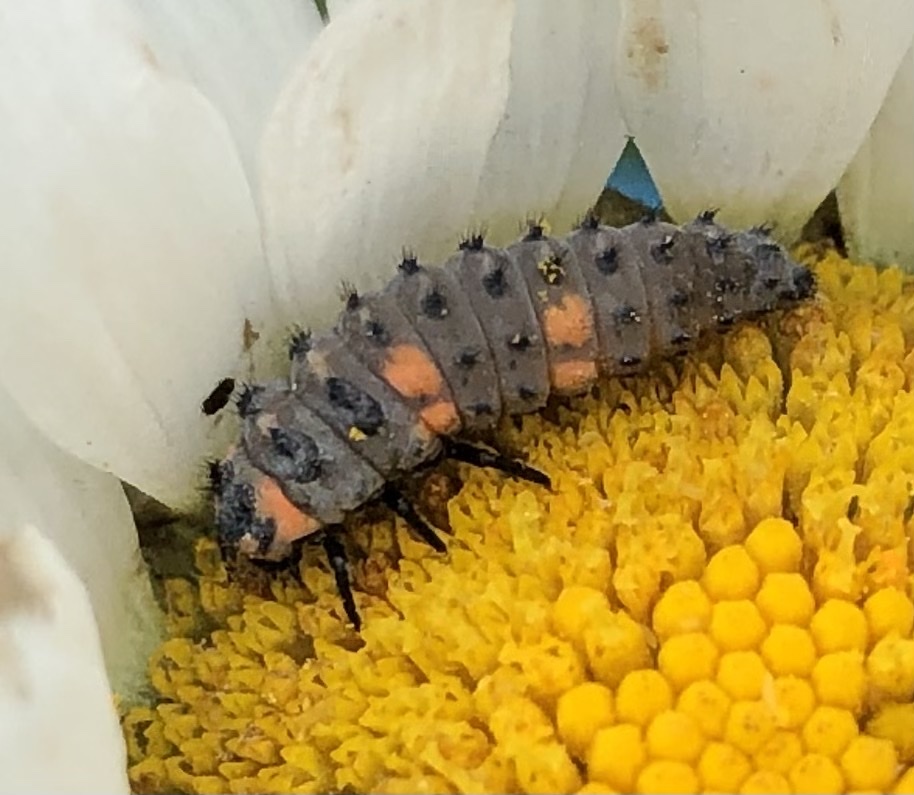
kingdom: Animalia
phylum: Arthropoda
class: Insecta
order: Coleoptera
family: Coccinellidae
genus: Coccinella
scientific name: Coccinella septempunctata
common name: Sevenspotted lady beetle
